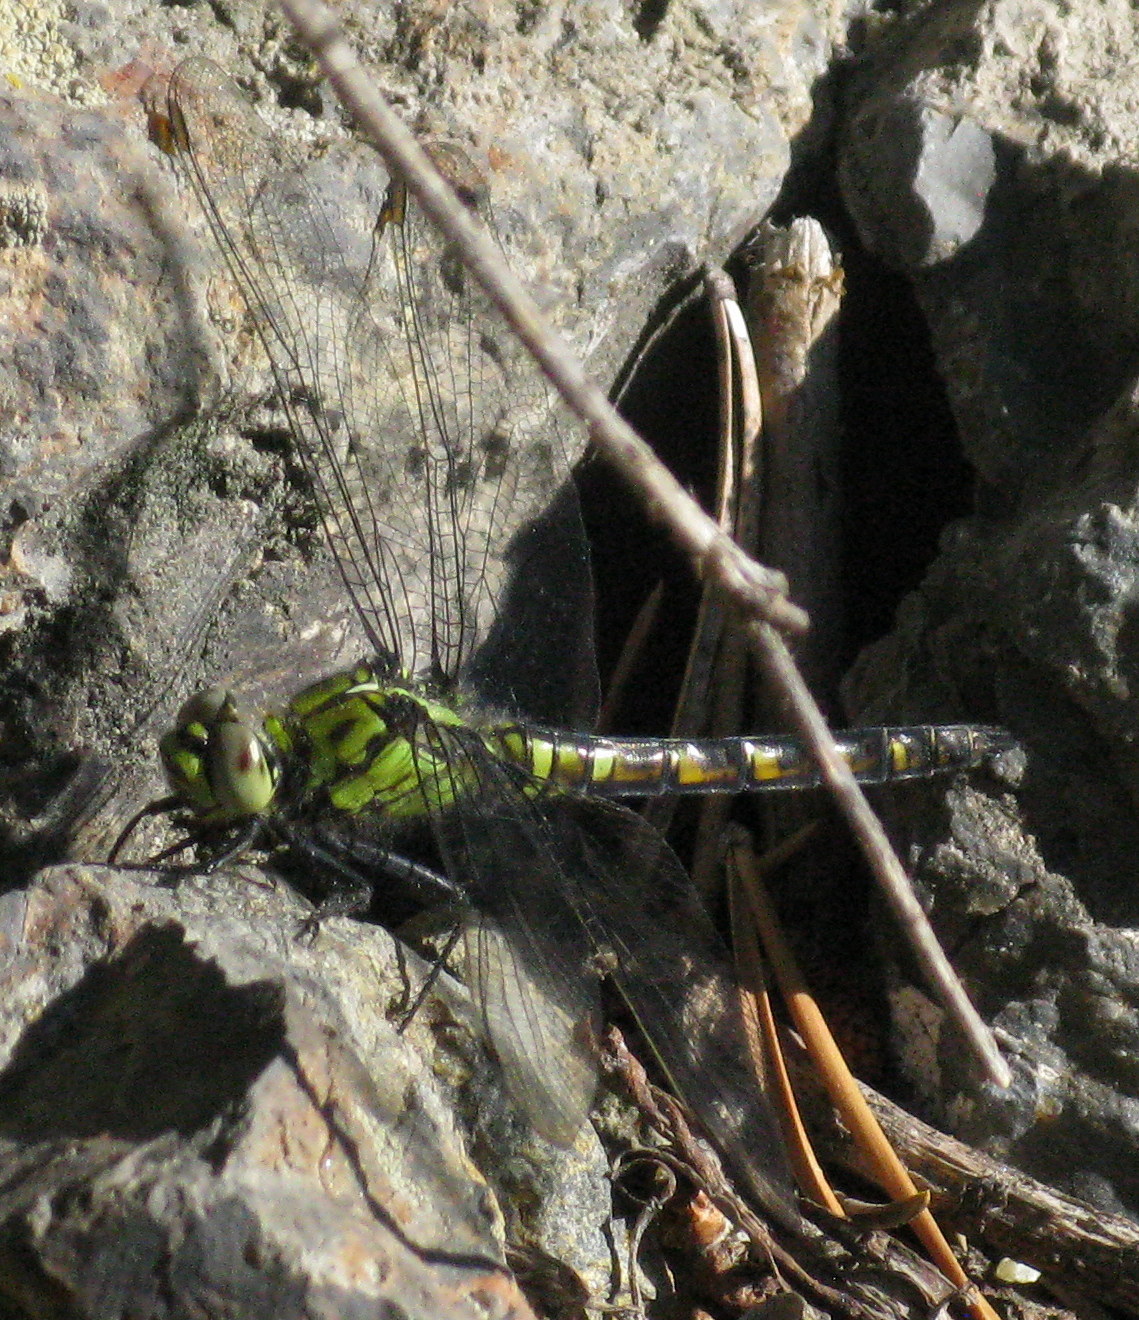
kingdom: Animalia
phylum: Arthropoda
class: Insecta
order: Odonata
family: Libellulidae
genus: Erythemis
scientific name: Erythemis collocata
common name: Western pondhawk
